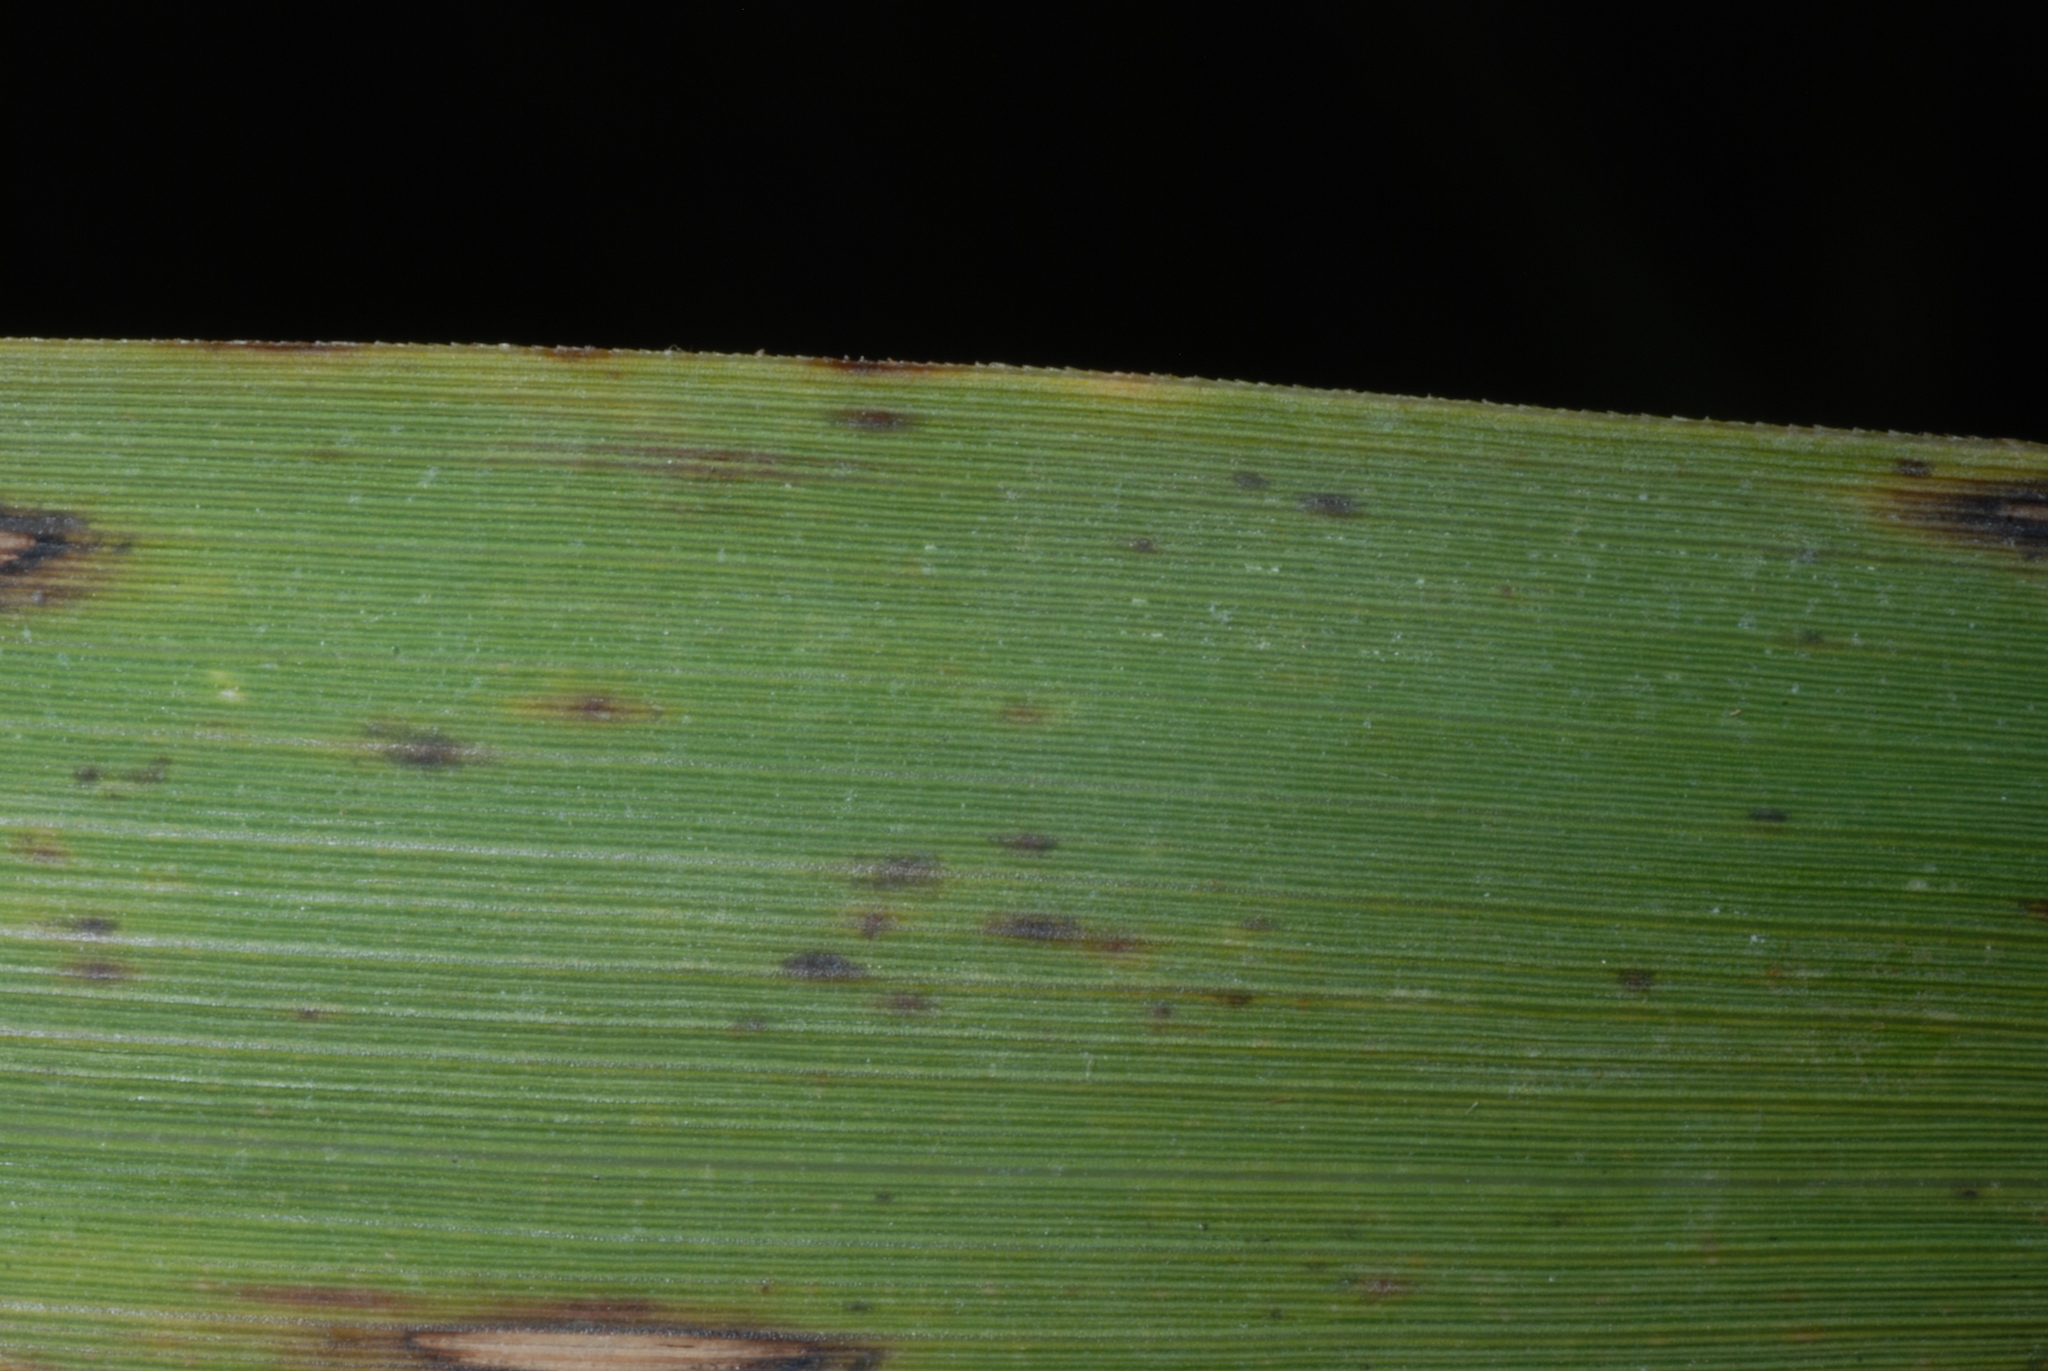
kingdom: Plantae
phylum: Tracheophyta
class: Liliopsida
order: Poales
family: Poaceae
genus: Phragmites
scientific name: Phragmites australis
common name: Common reed
